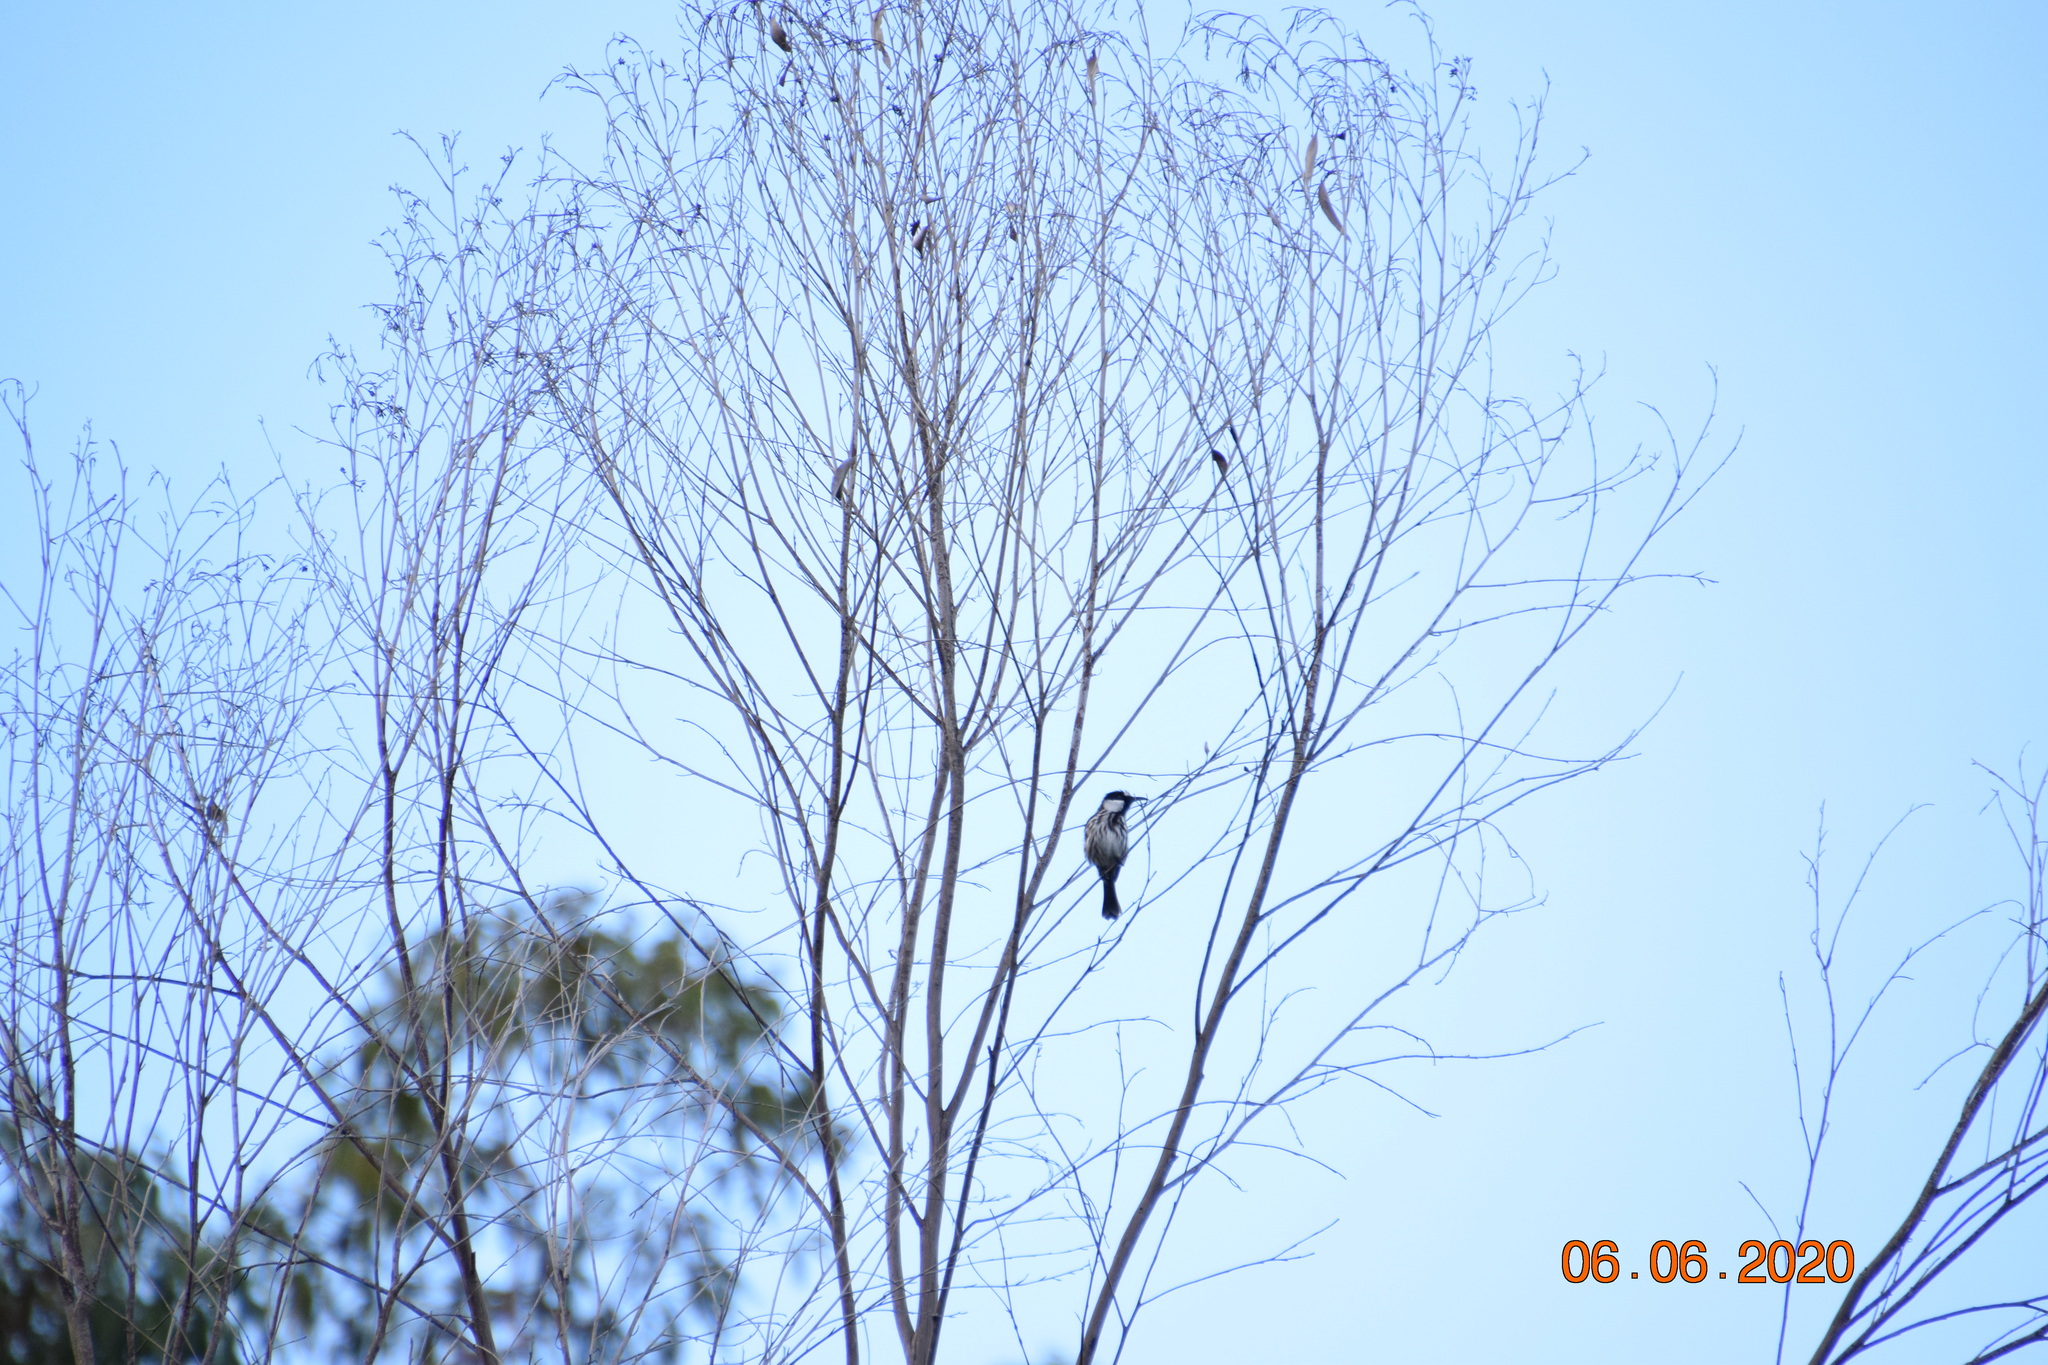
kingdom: Animalia
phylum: Chordata
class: Aves
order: Passeriformes
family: Meliphagidae
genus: Phylidonyris
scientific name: Phylidonyris niger
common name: White-cheeked honeyeater
